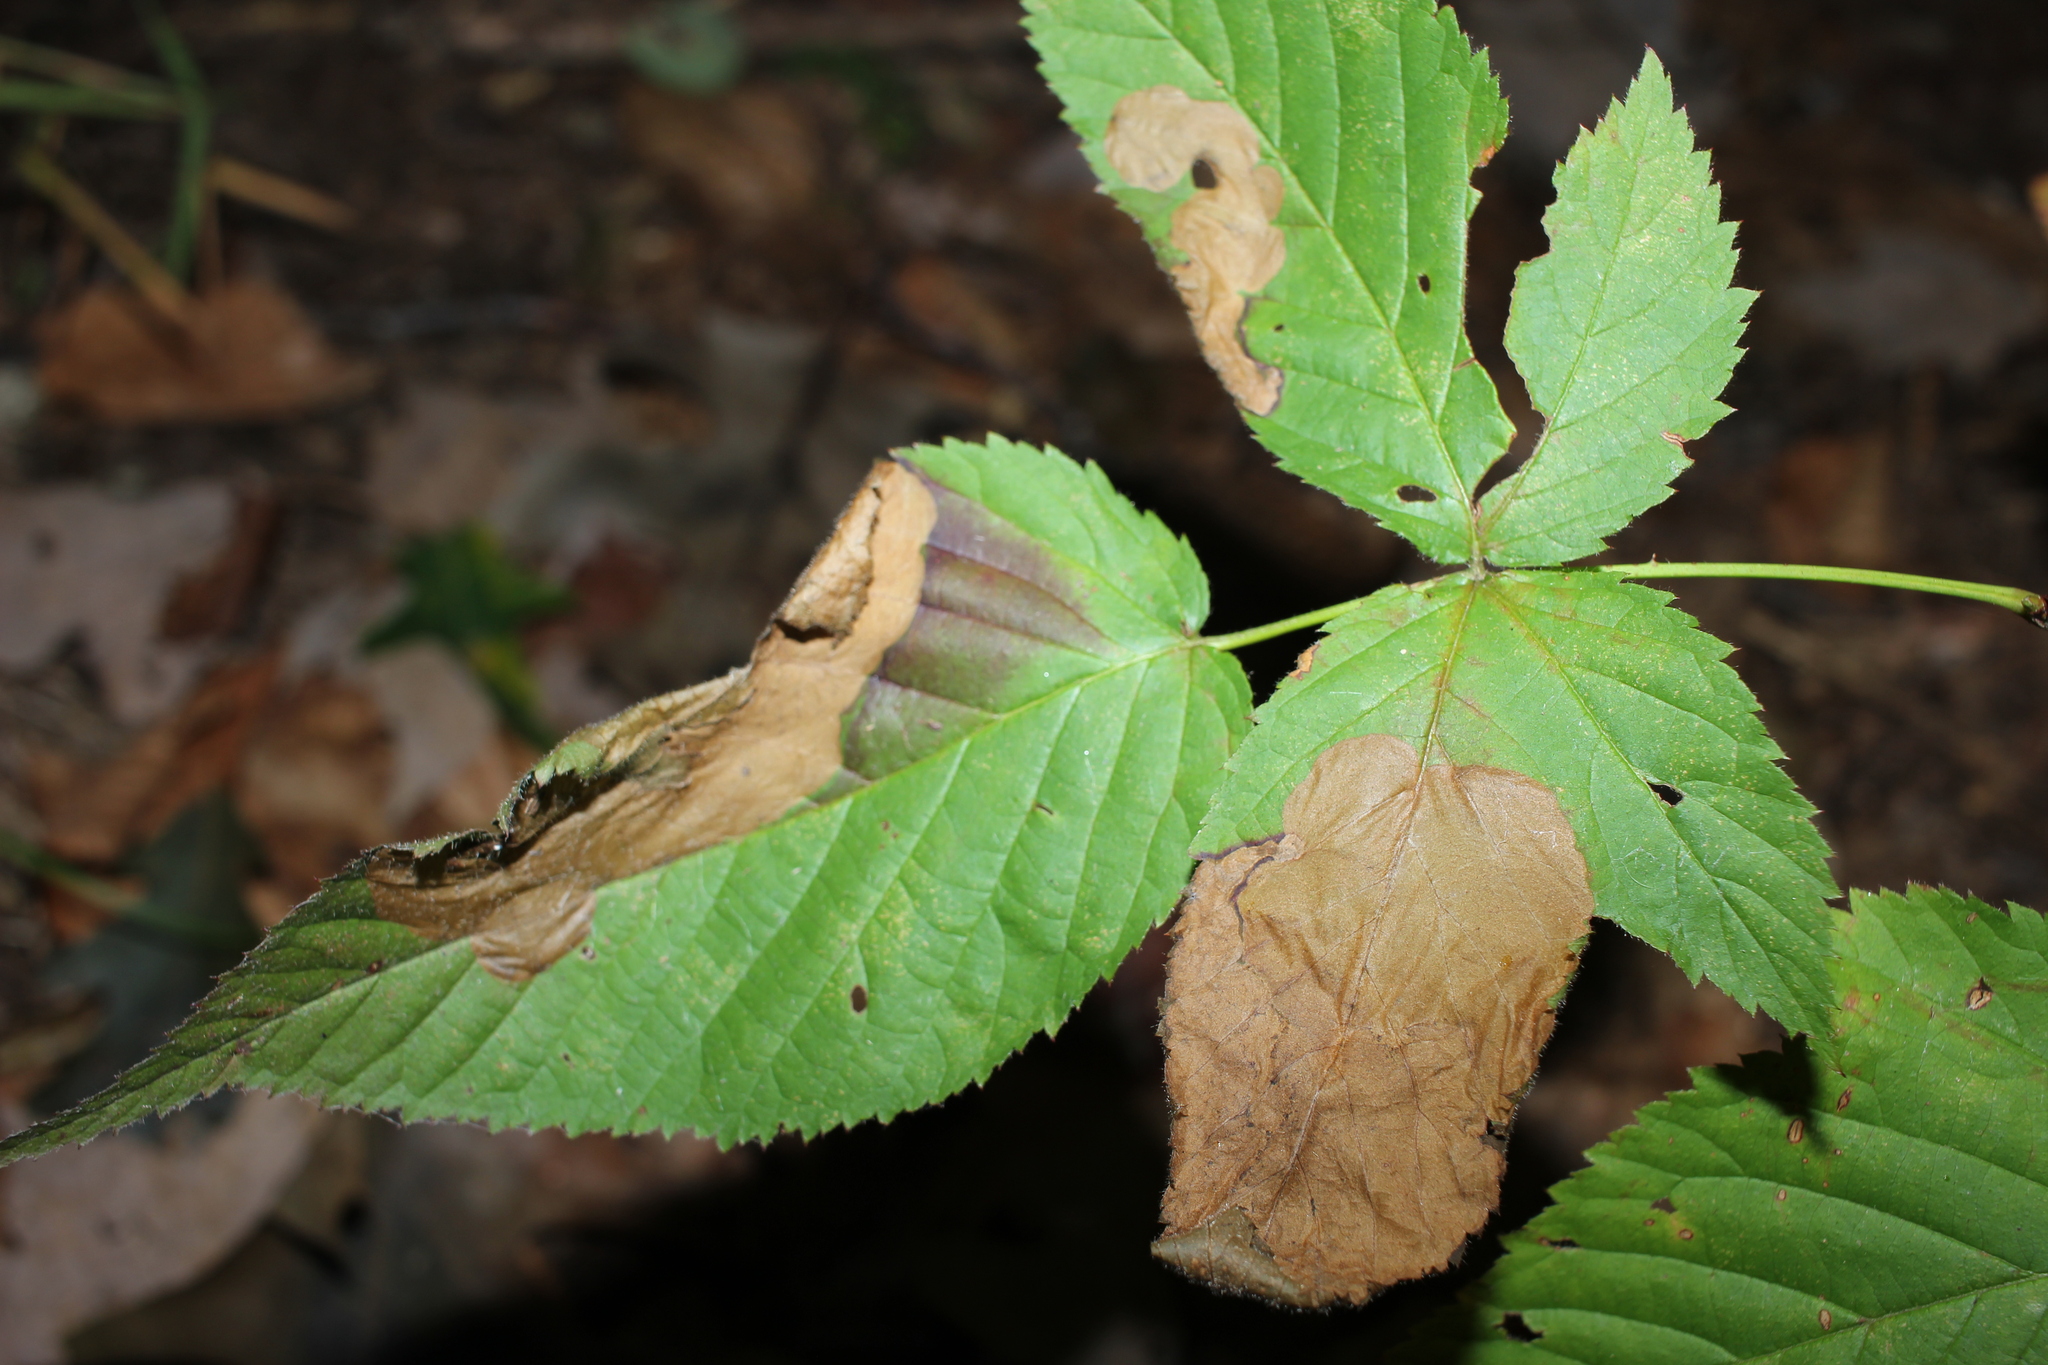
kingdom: Animalia
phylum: Arthropoda
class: Insecta
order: Hymenoptera
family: Tenthredinidae
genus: Metallus
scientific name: Metallus rohweri
